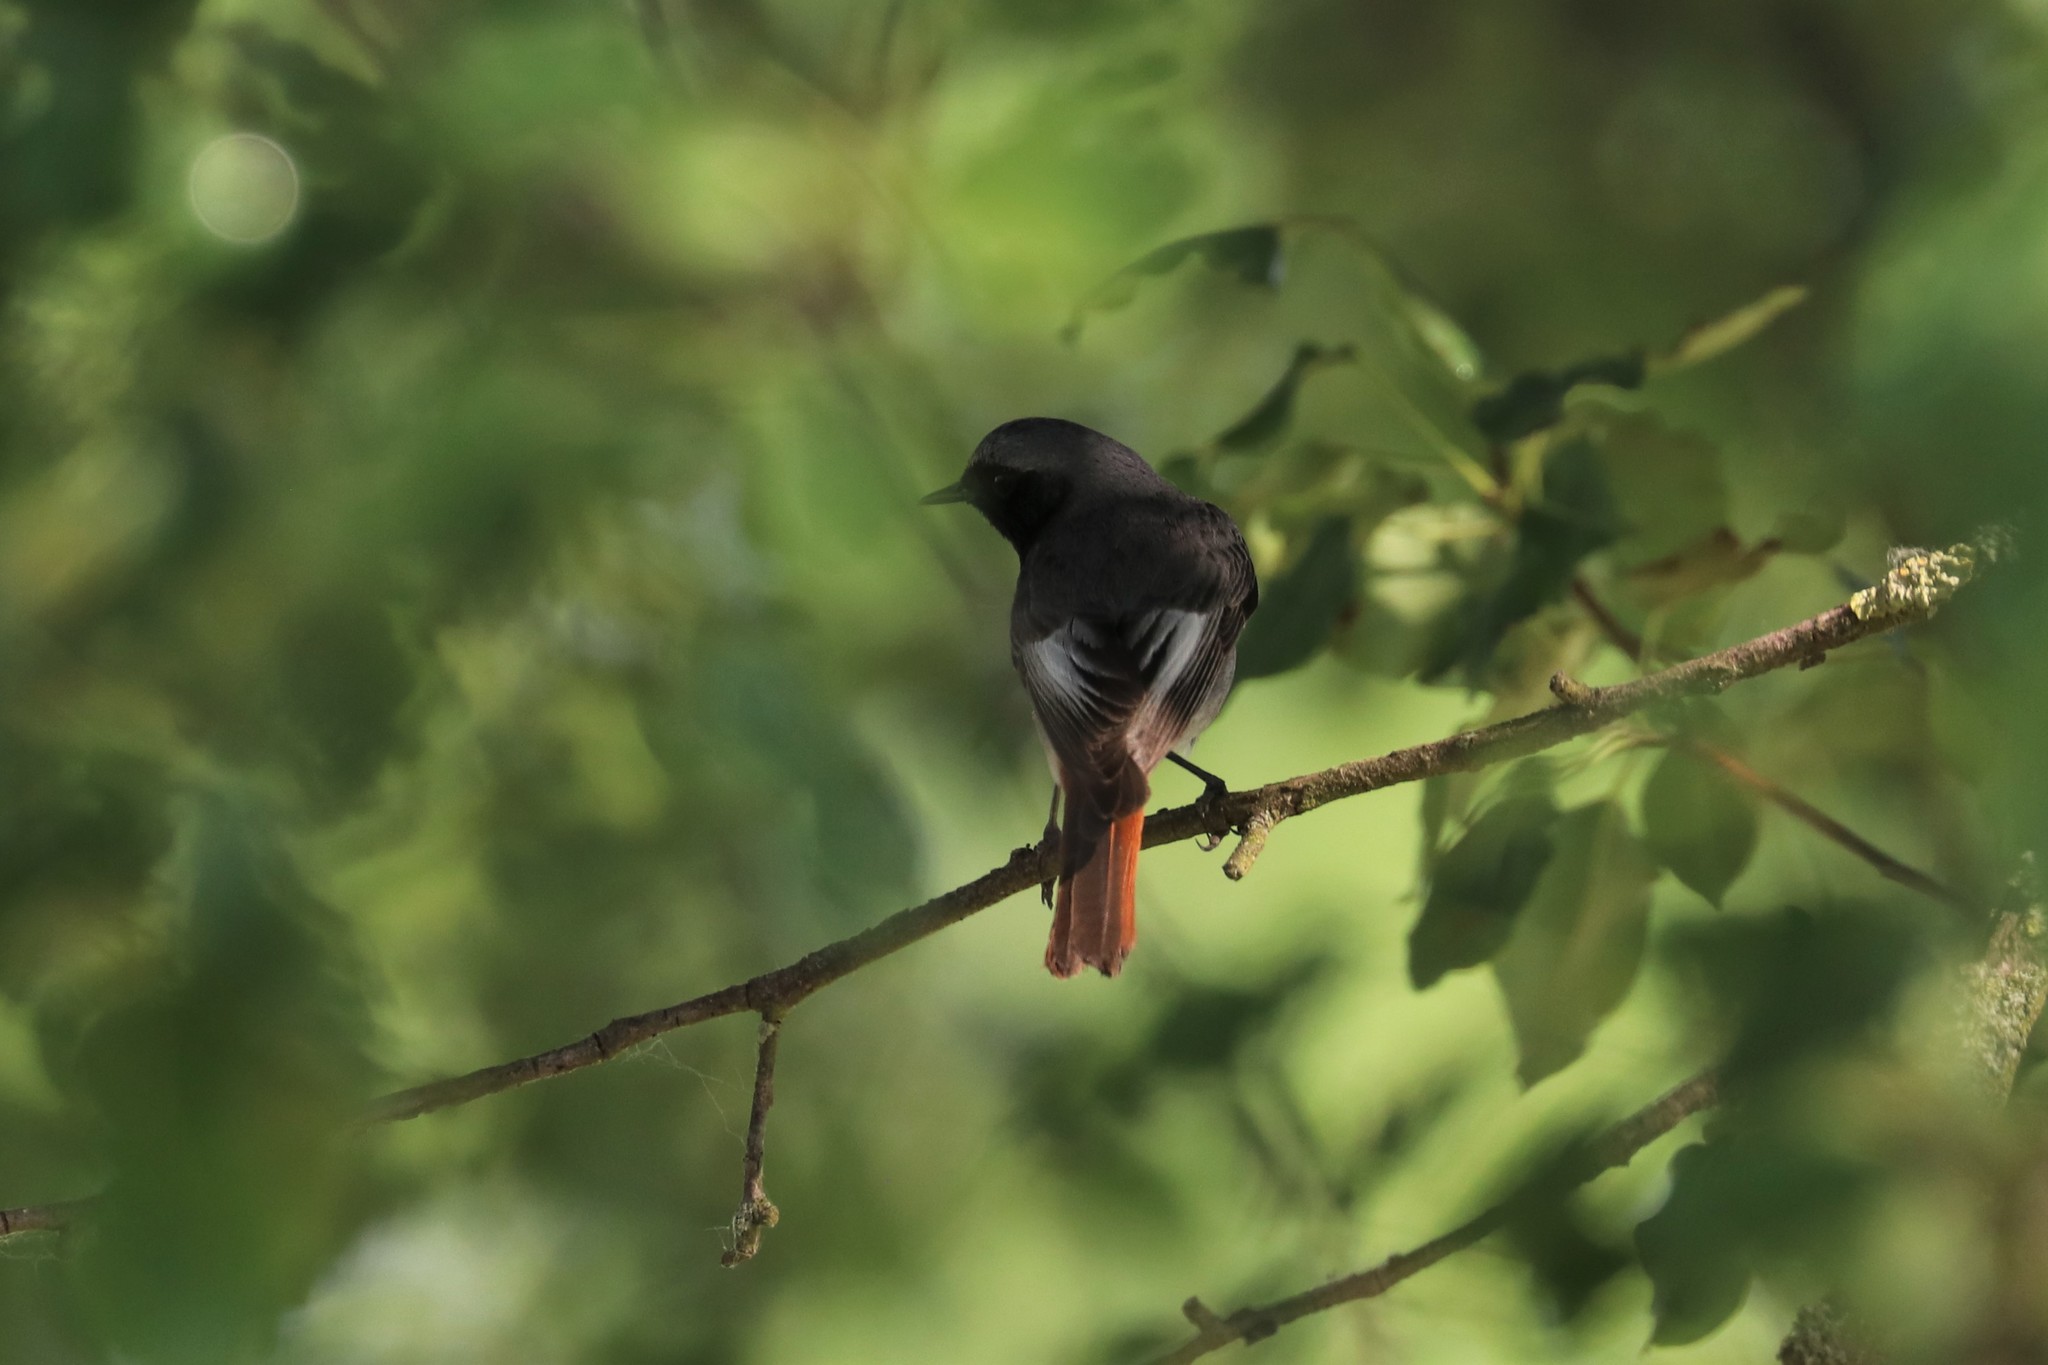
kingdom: Animalia
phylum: Chordata
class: Aves
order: Passeriformes
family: Muscicapidae
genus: Phoenicurus
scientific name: Phoenicurus ochruros
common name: Black redstart
